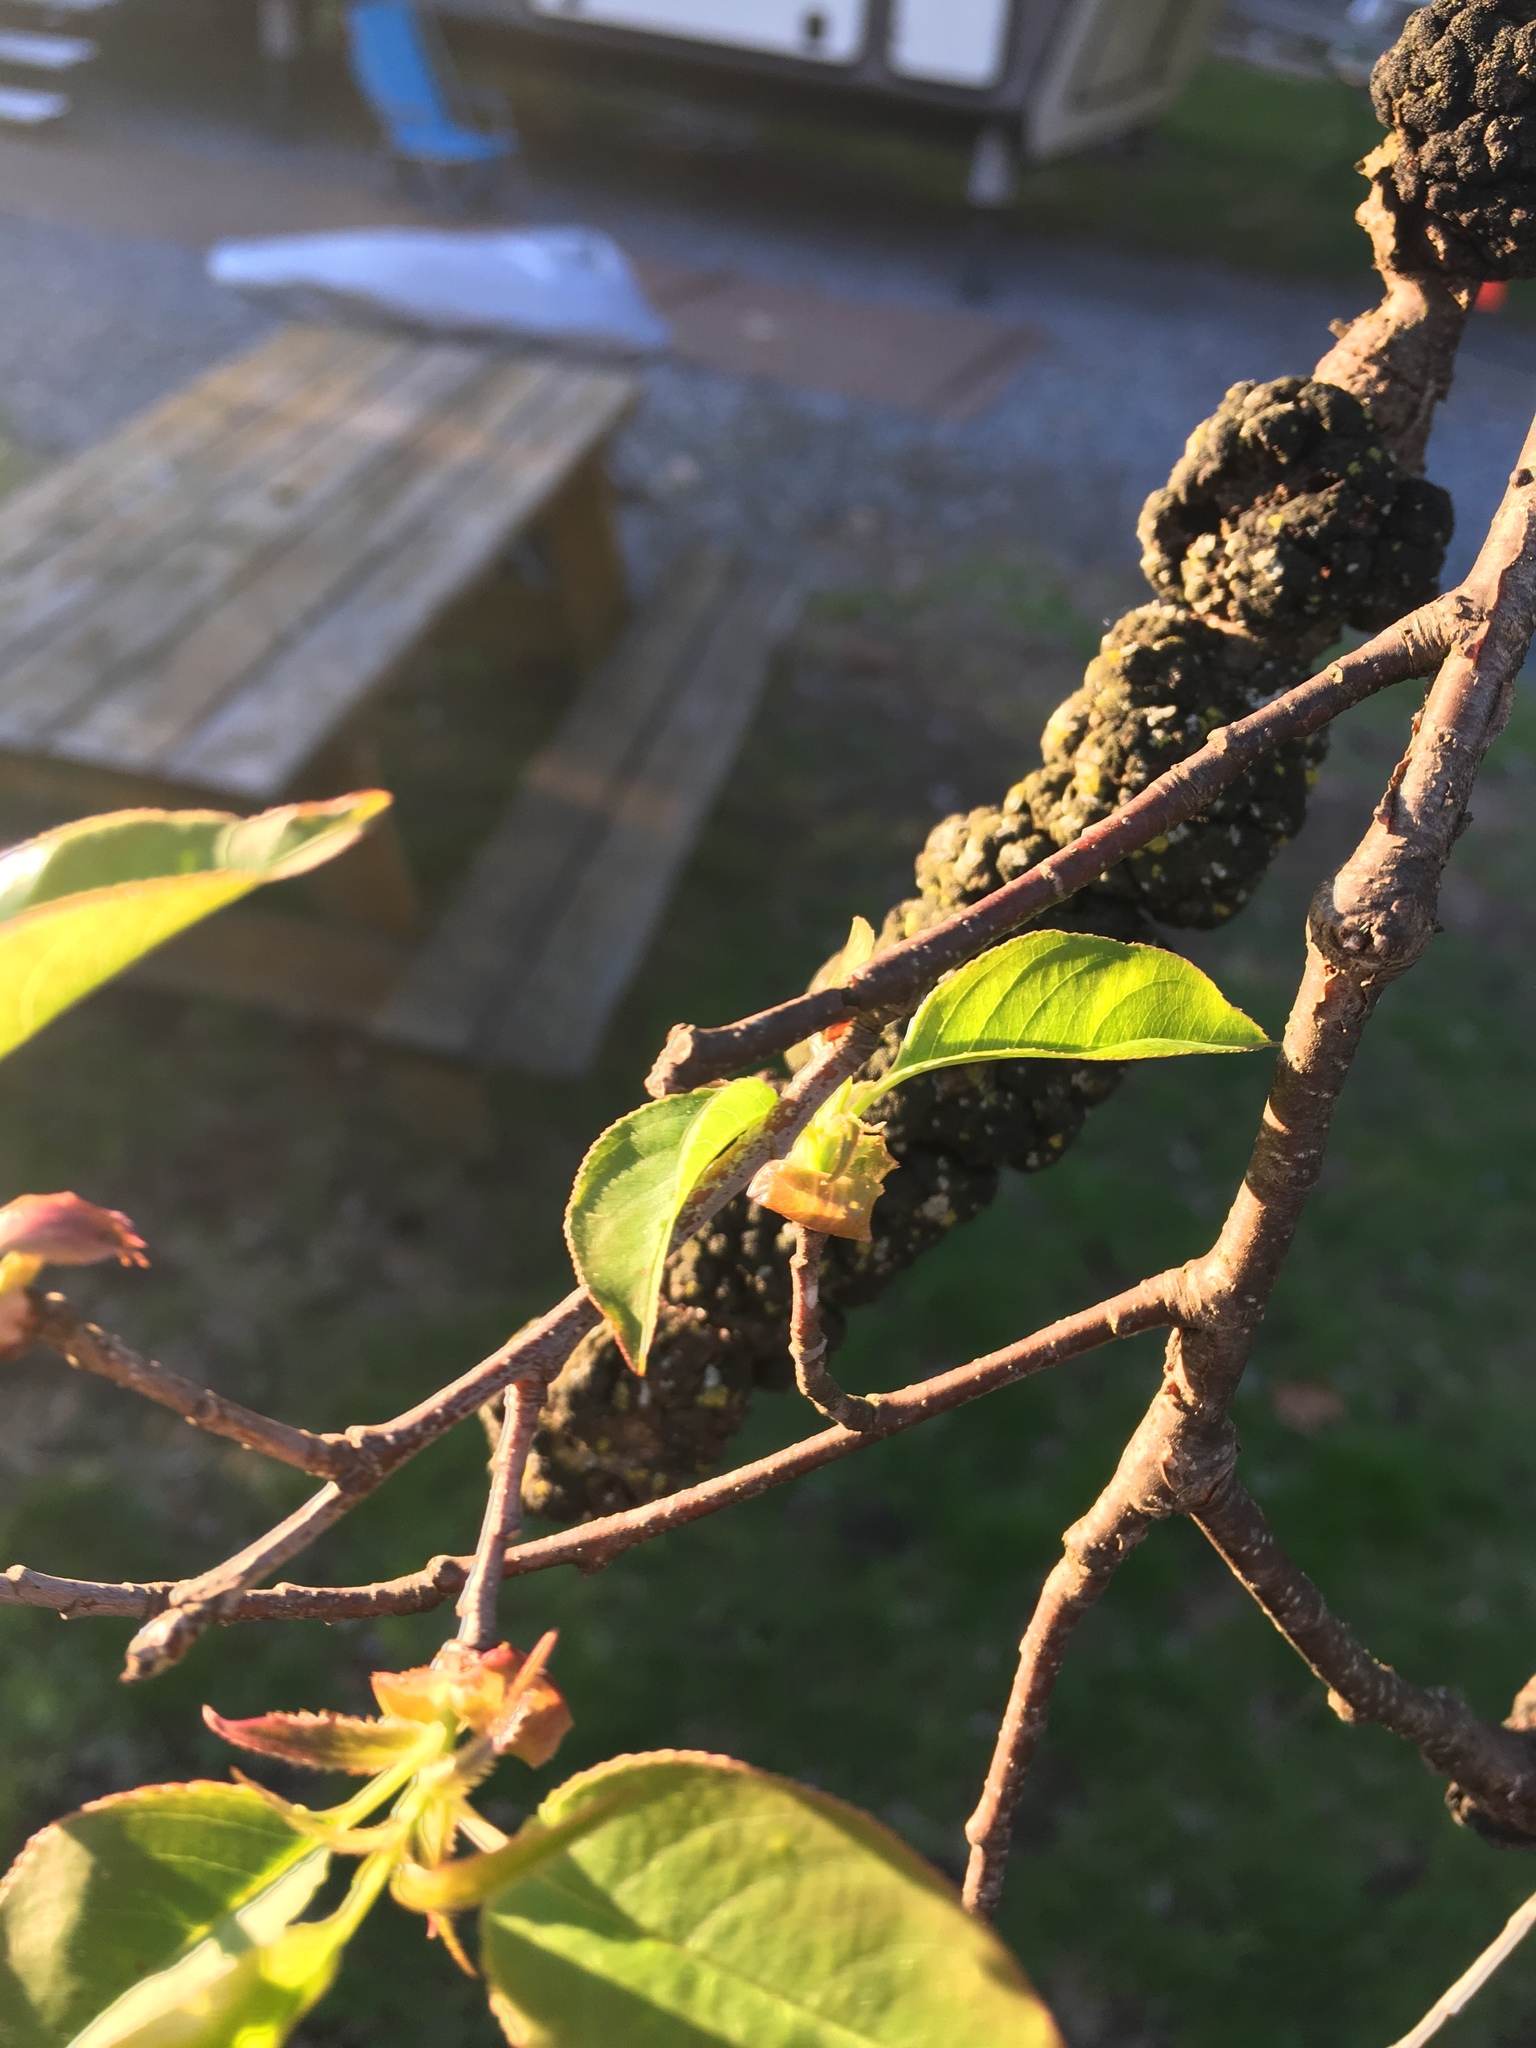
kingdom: Fungi
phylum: Ascomycota
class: Dothideomycetes
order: Venturiales
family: Venturiaceae
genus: Apiosporina
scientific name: Apiosporina morbosa
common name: Black knot
